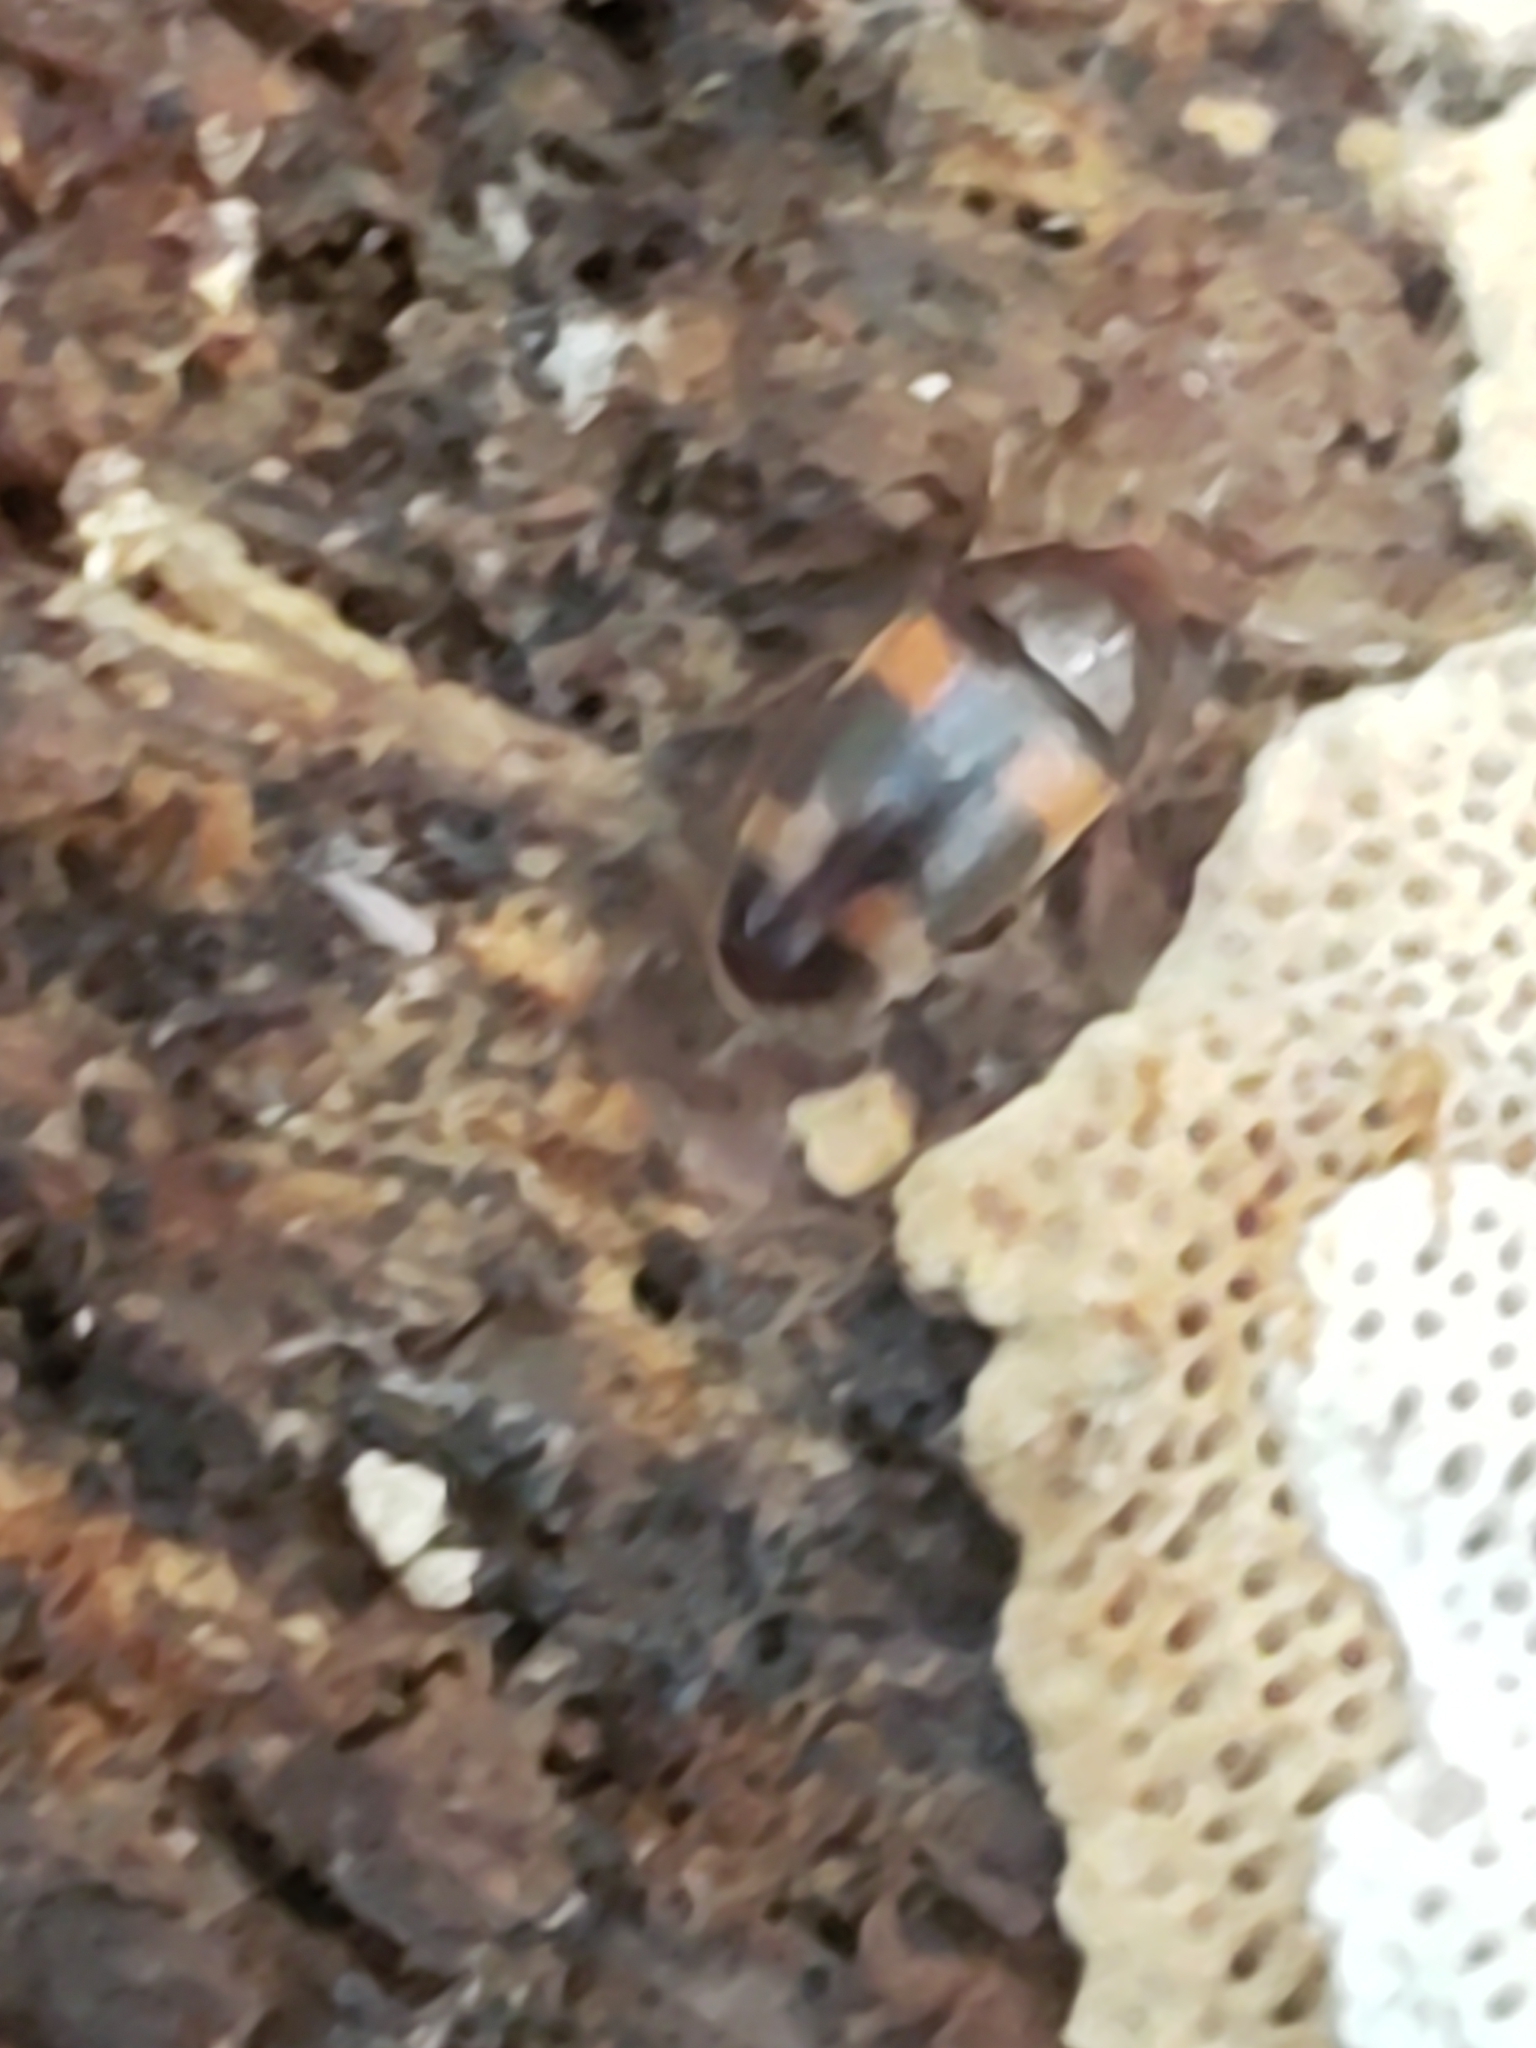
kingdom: Animalia
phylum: Arthropoda
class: Insecta
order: Coleoptera
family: Tetratomidae
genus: Holostrophus
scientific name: Holostrophus bifasciatus
